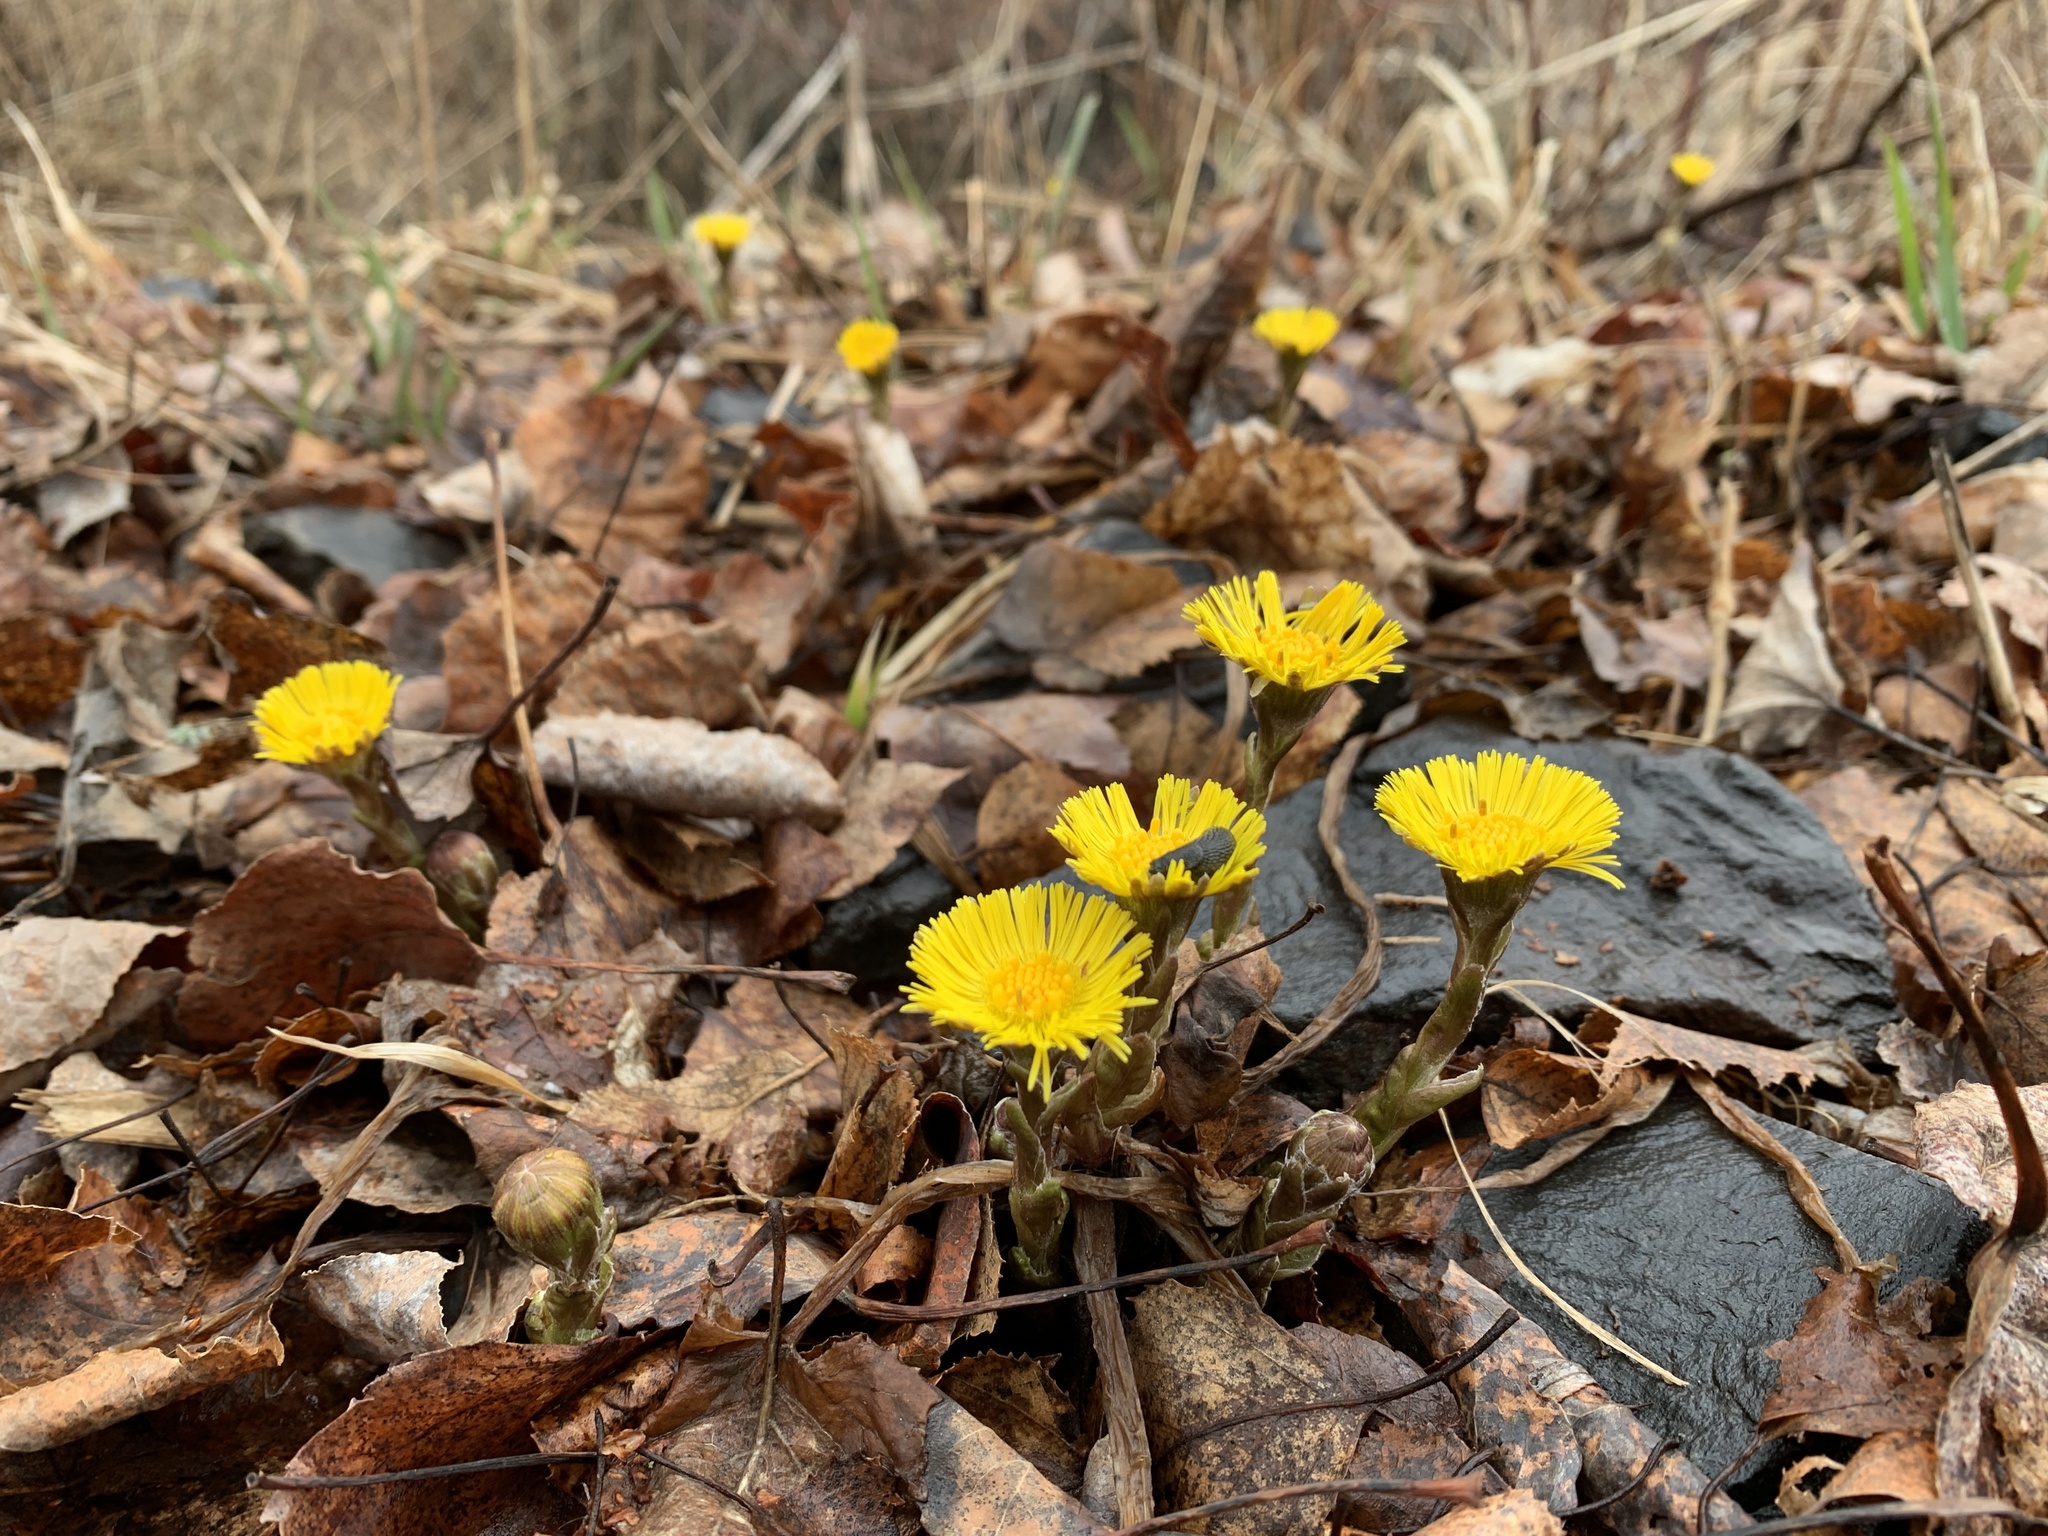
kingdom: Plantae
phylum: Tracheophyta
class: Magnoliopsida
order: Asterales
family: Asteraceae
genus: Tussilago
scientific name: Tussilago farfara
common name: Coltsfoot
